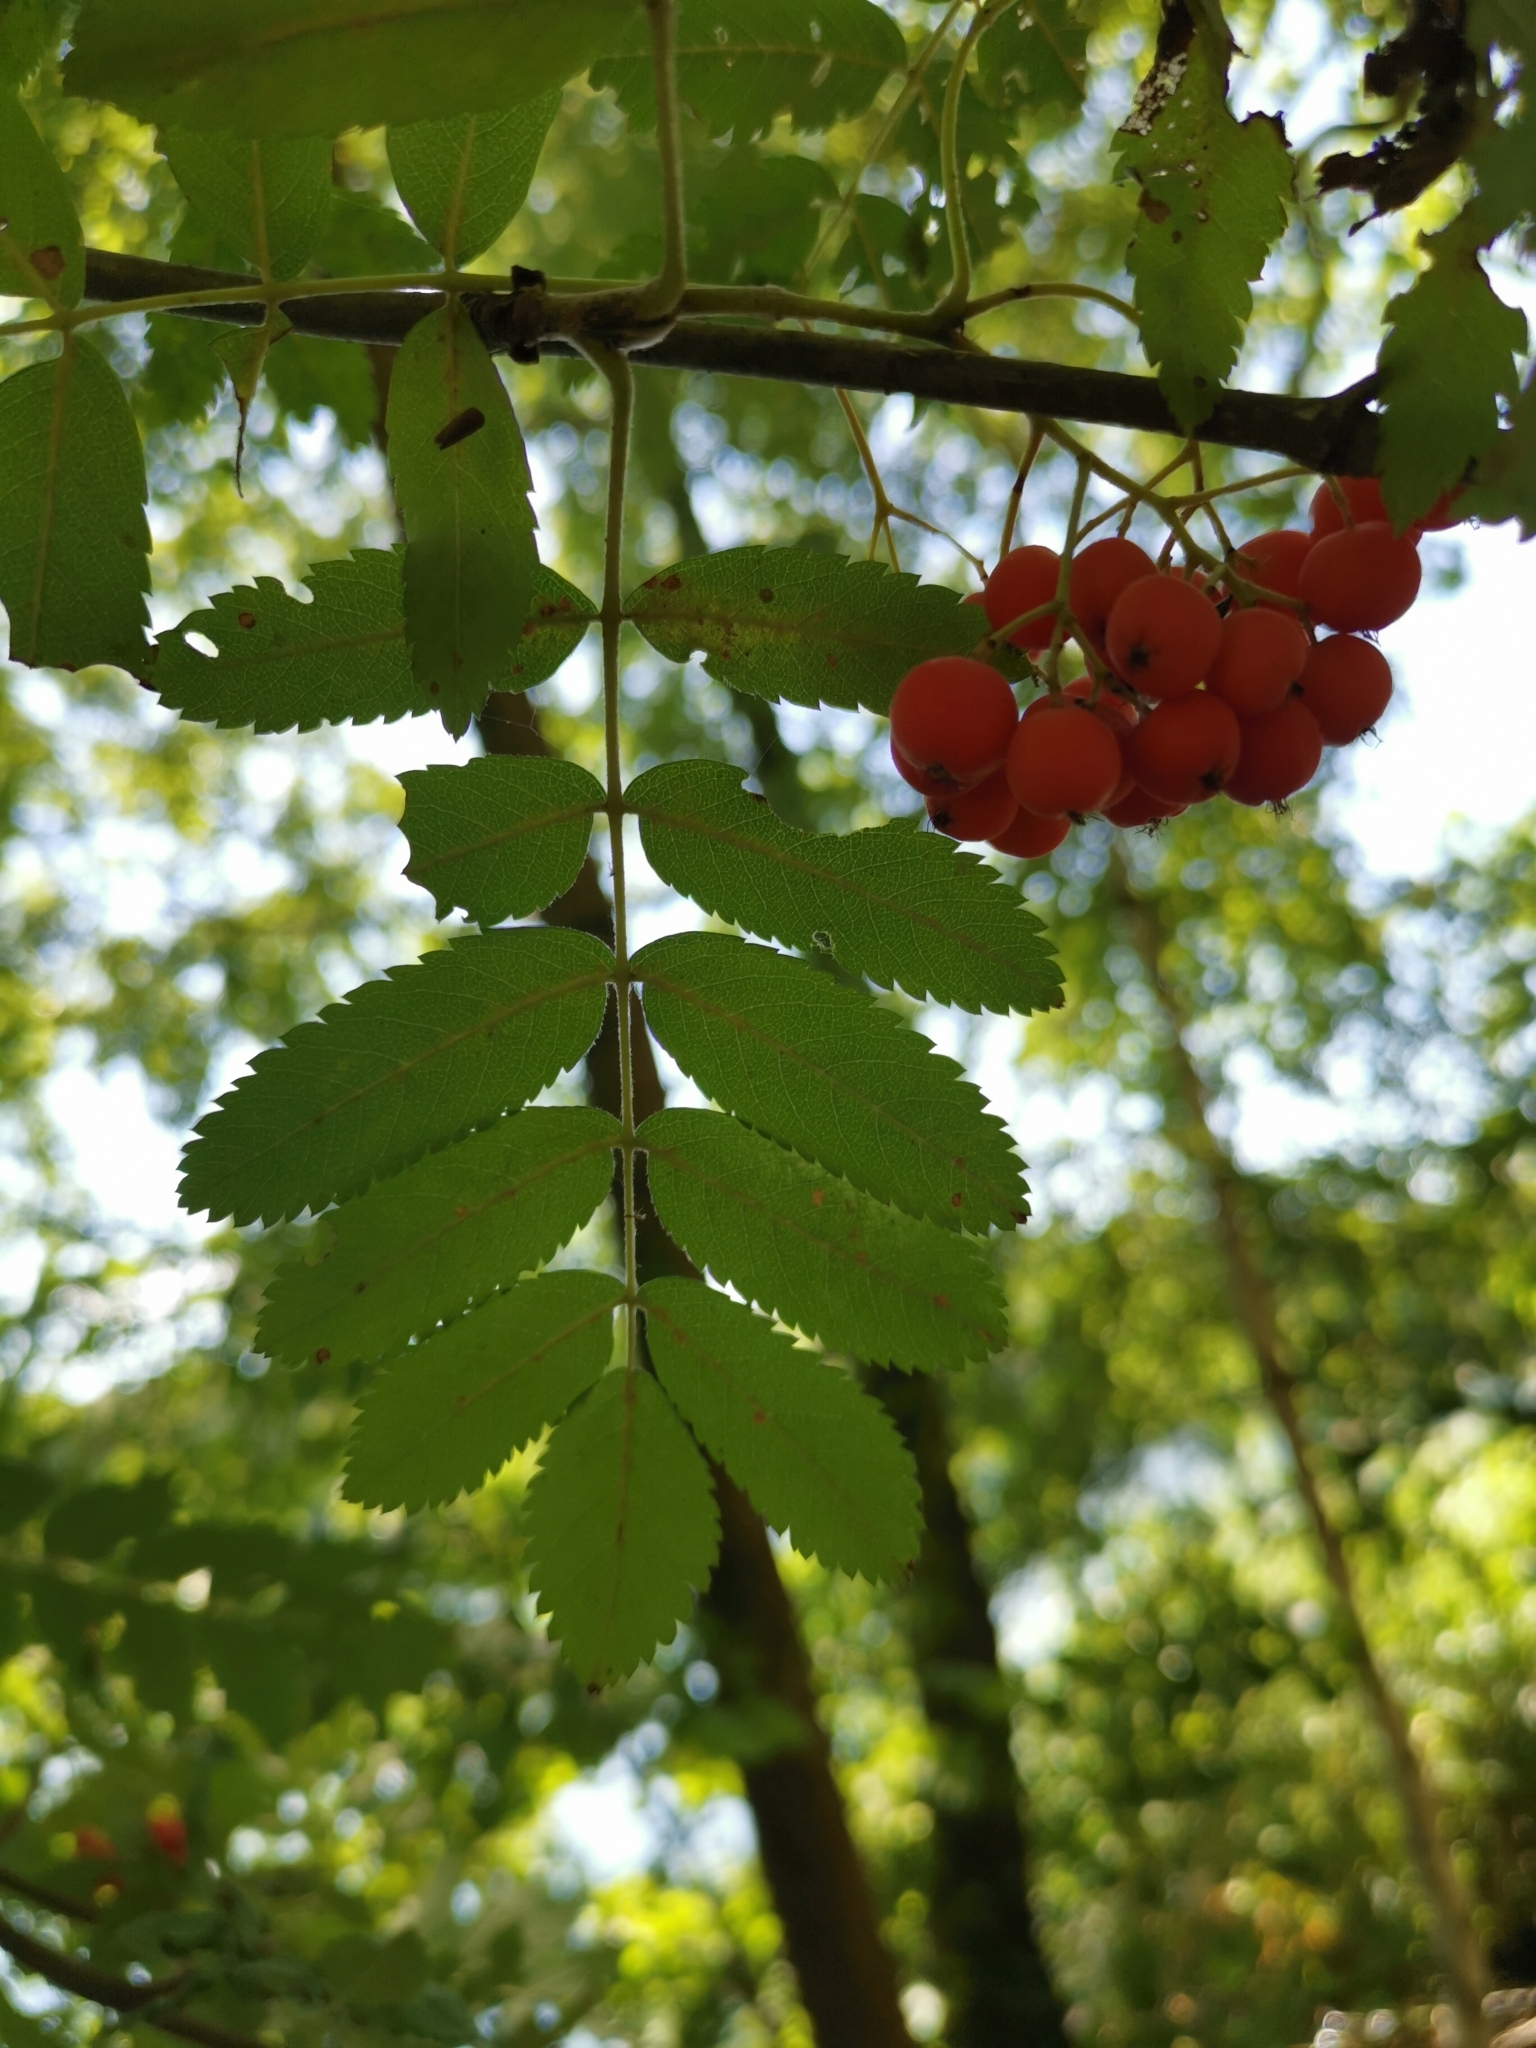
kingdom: Plantae
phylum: Tracheophyta
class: Magnoliopsida
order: Rosales
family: Rosaceae
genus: Sorbus
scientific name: Sorbus aucuparia
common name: Rowan
